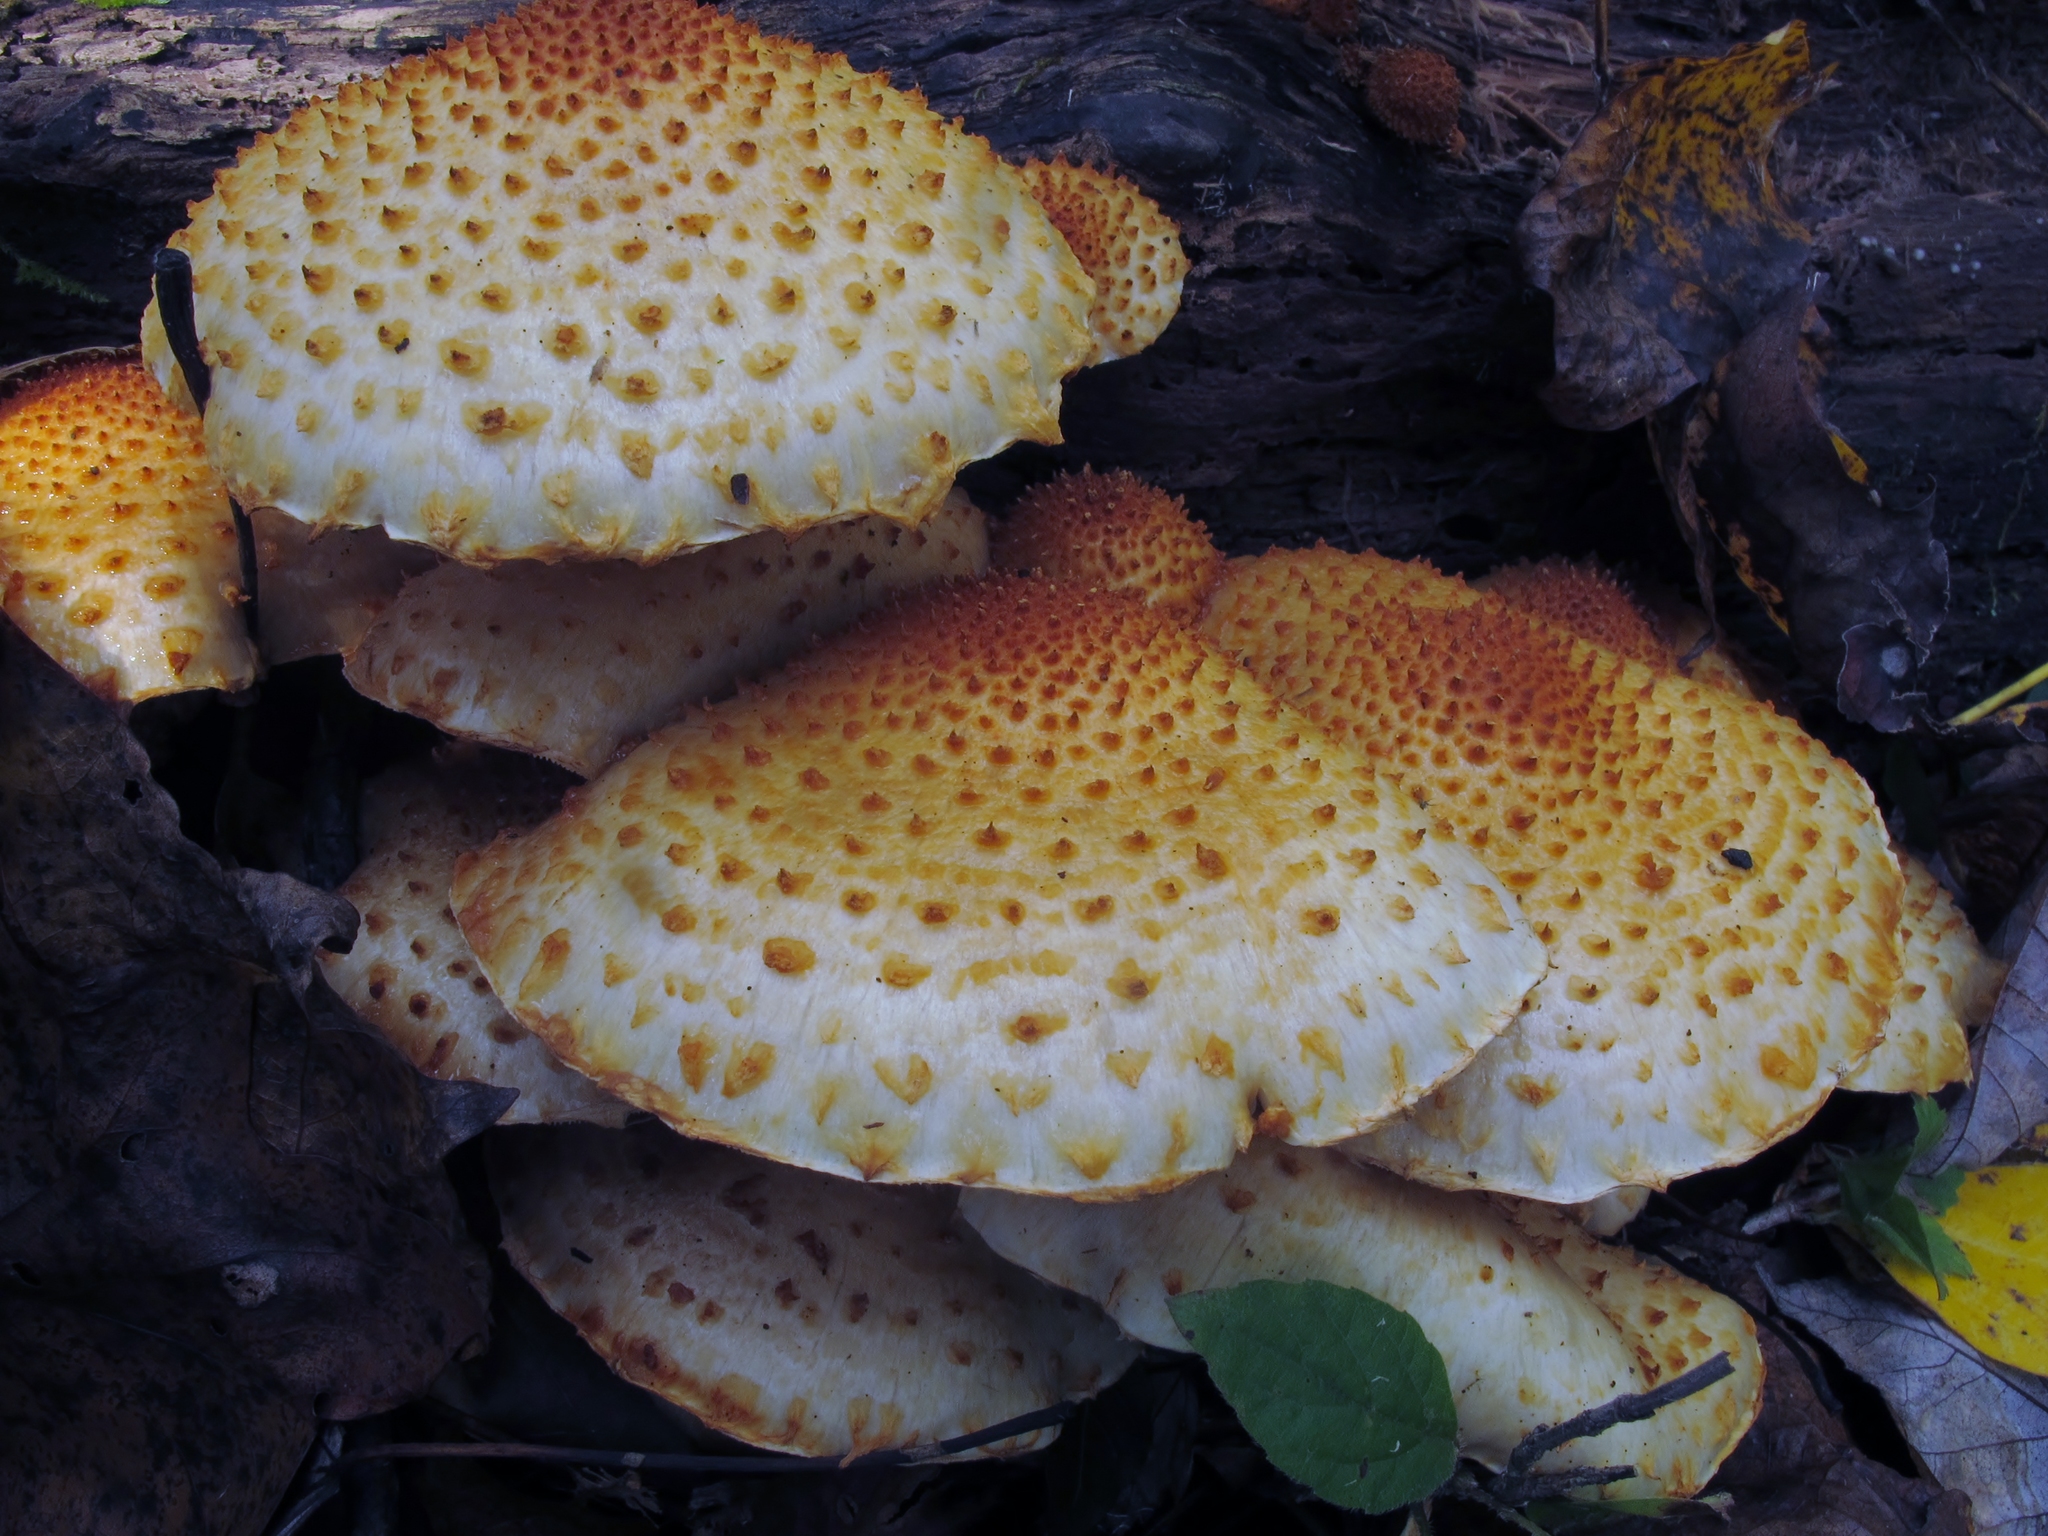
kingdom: Fungi
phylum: Basidiomycota
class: Agaricomycetes
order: Agaricales
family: Strophariaceae
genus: Pholiota
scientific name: Pholiota squarrosoides
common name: Sharp-scaly pholiota
